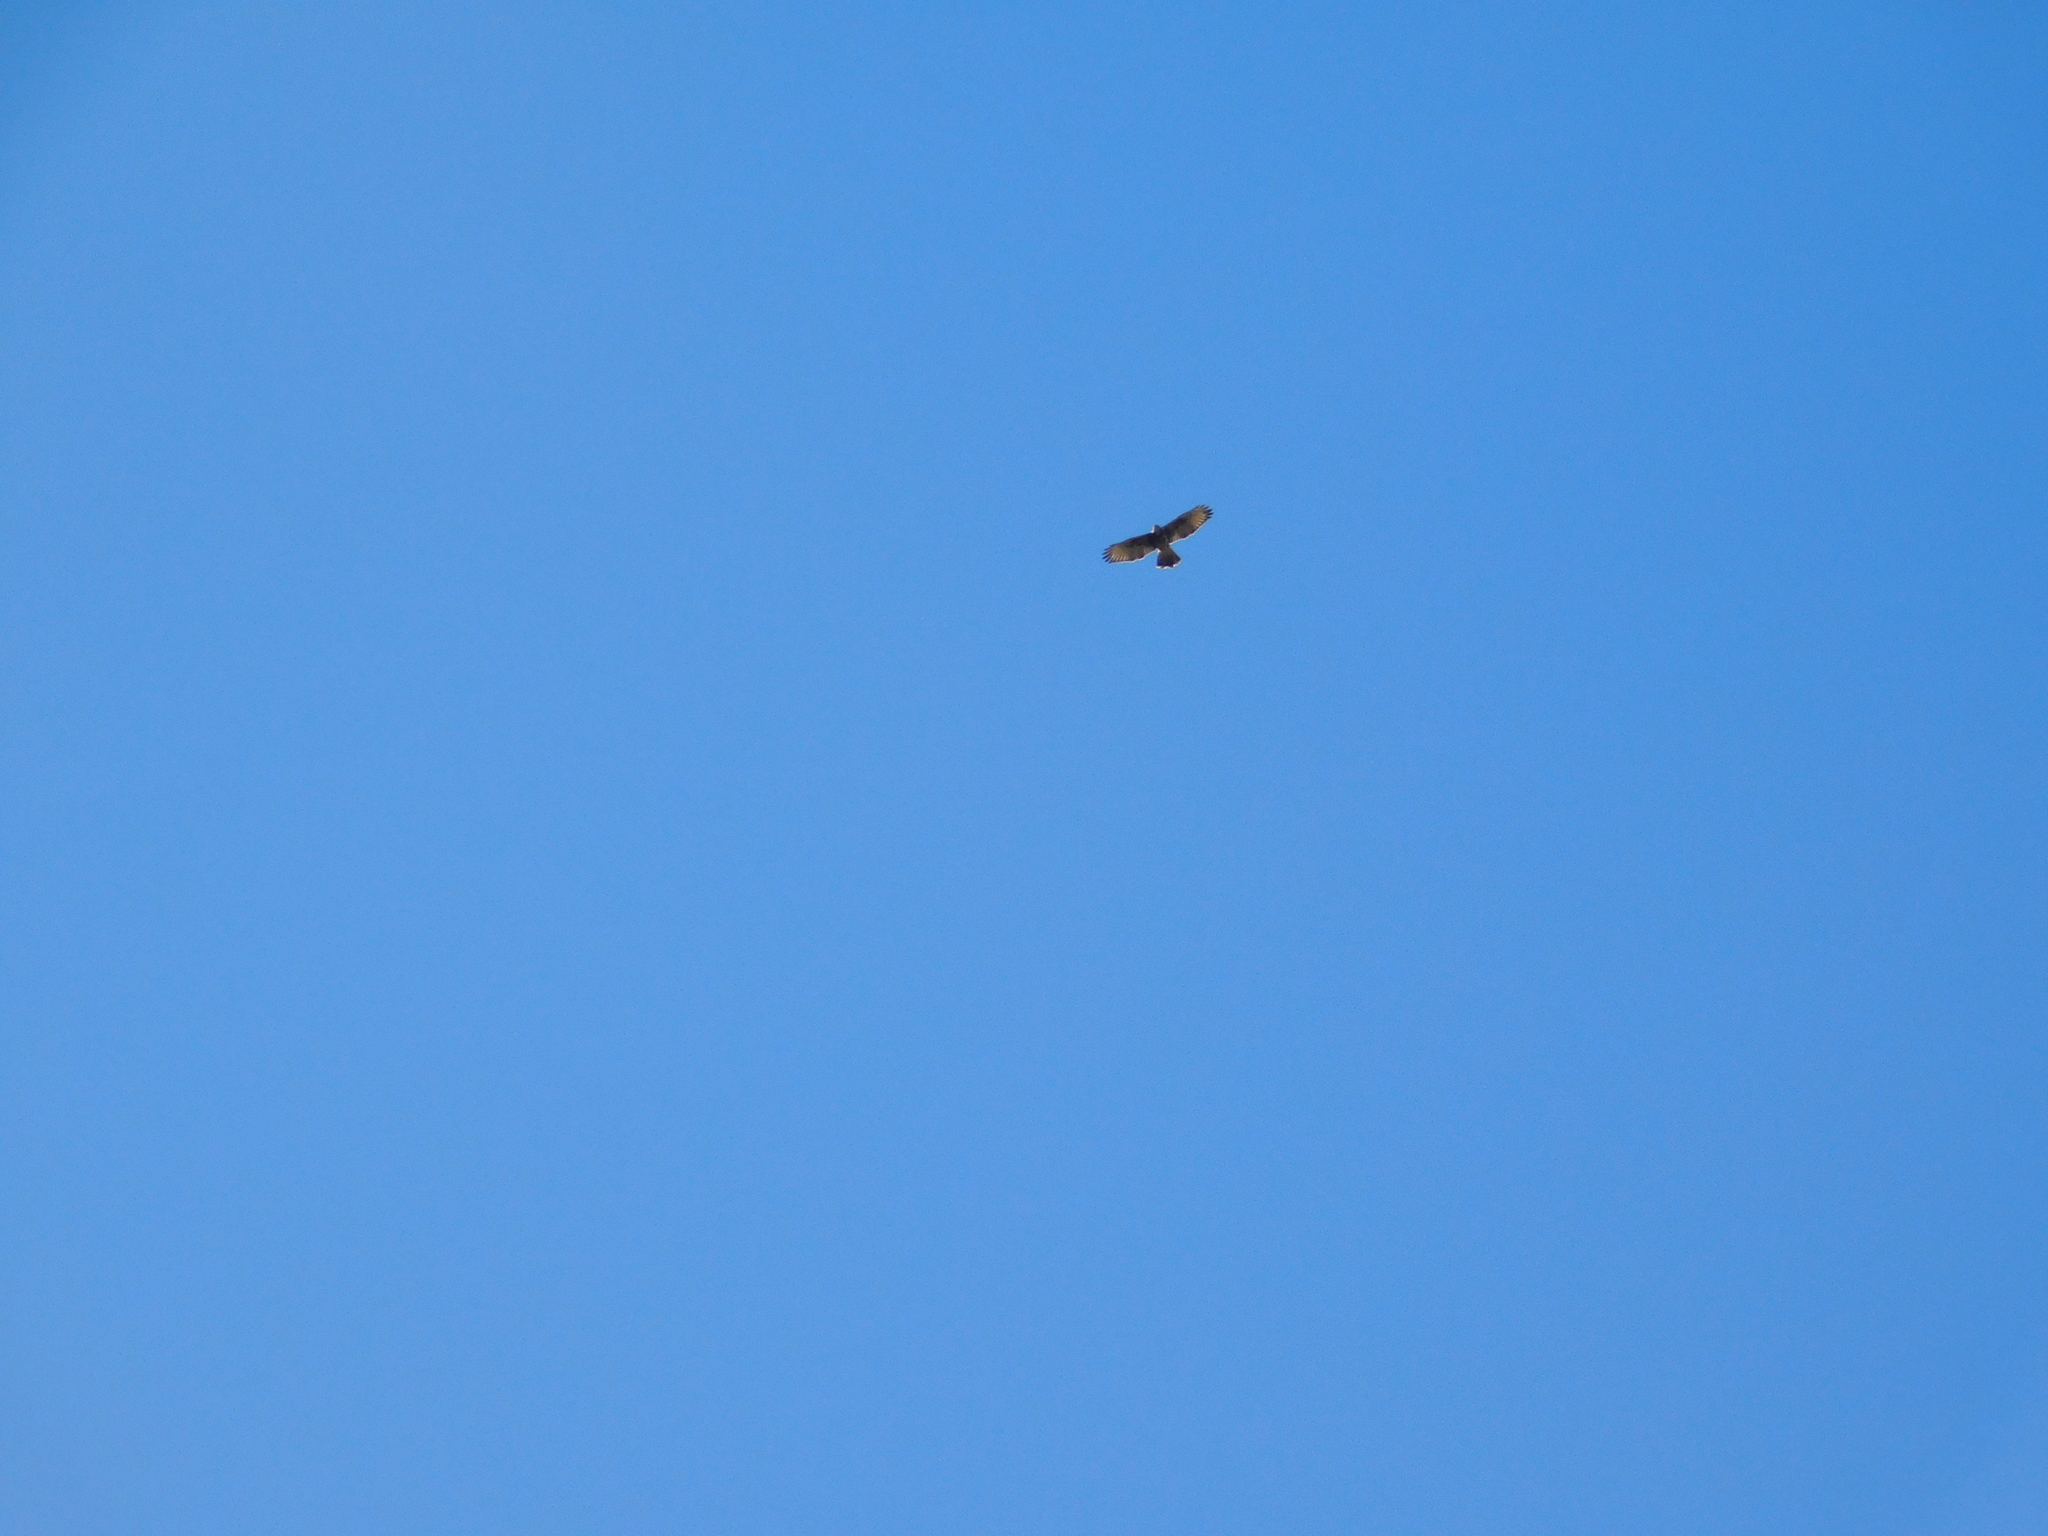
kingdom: Animalia
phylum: Chordata
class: Aves
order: Accipitriformes
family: Accipitridae
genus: Parabuteo
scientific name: Parabuteo unicinctus
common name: Harris's hawk
